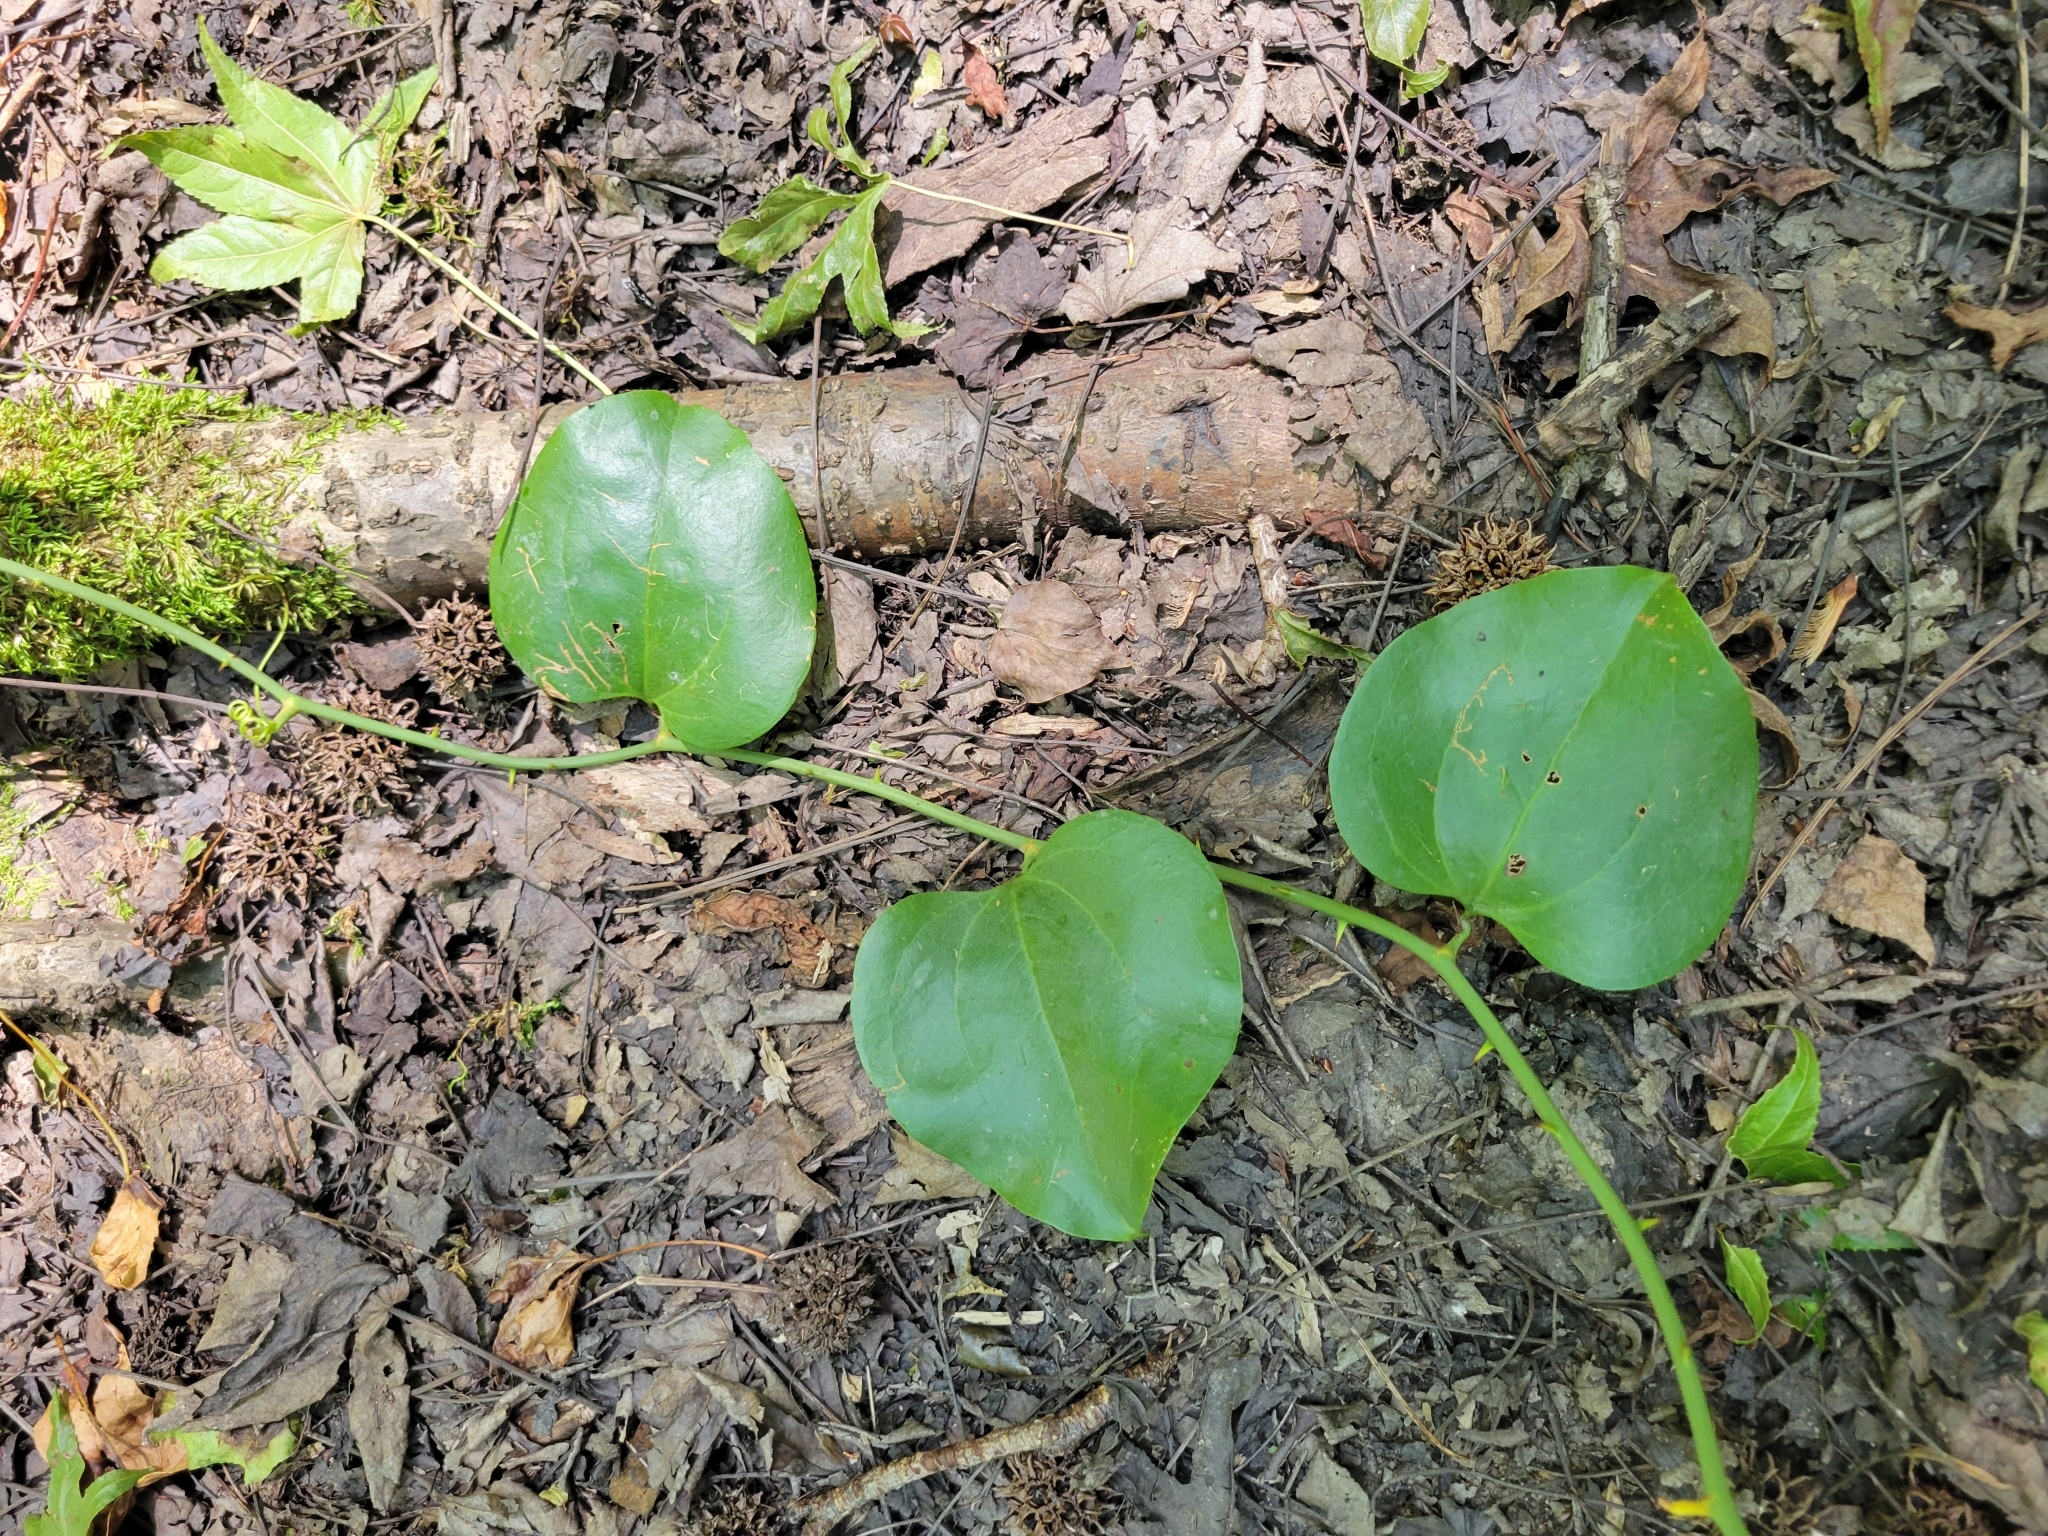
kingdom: Plantae
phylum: Tracheophyta
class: Liliopsida
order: Liliales
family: Smilacaceae
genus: Smilax
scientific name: Smilax rotundifolia
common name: Bullbriar
